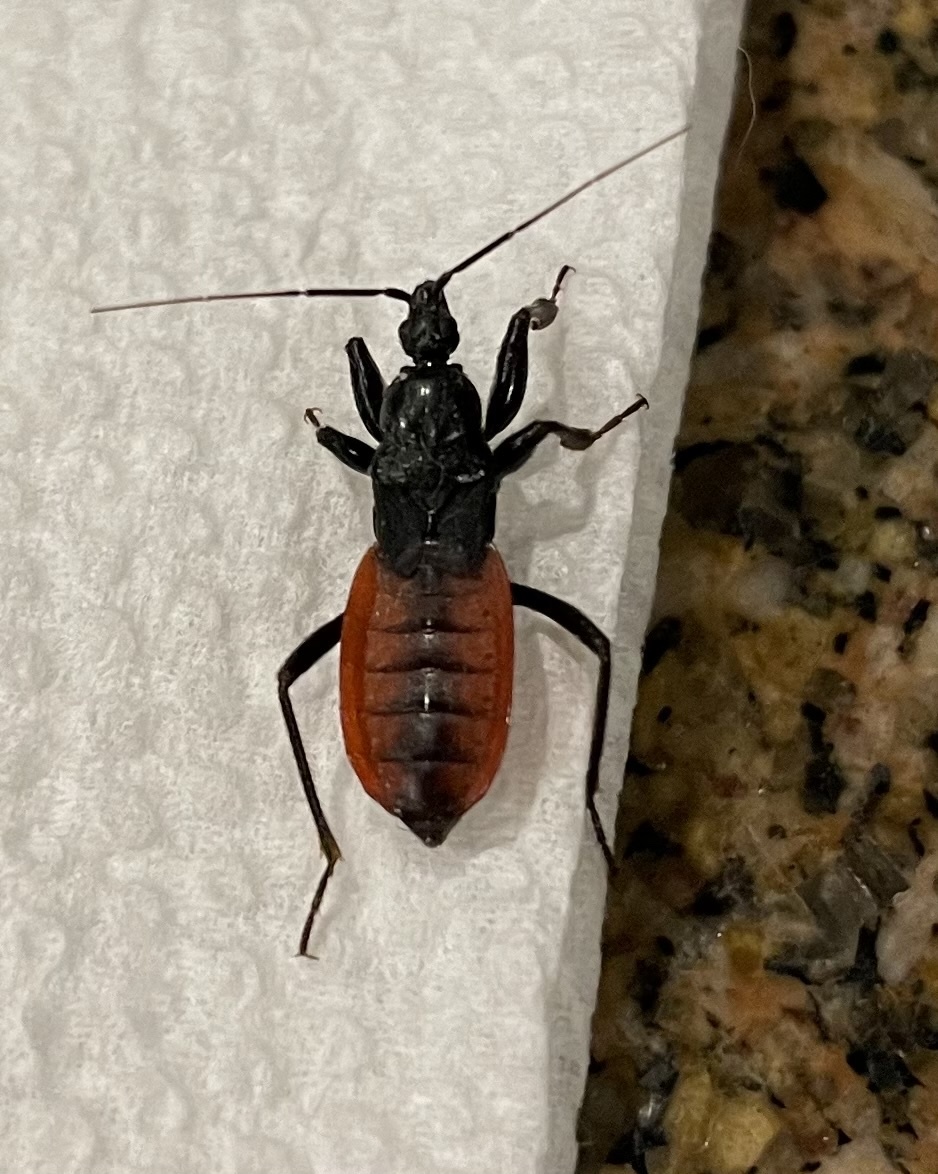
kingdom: Animalia
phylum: Arthropoda
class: Insecta
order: Hemiptera
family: Reduviidae
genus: Melanolestes
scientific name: Melanolestes picipes
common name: Assassin bug
